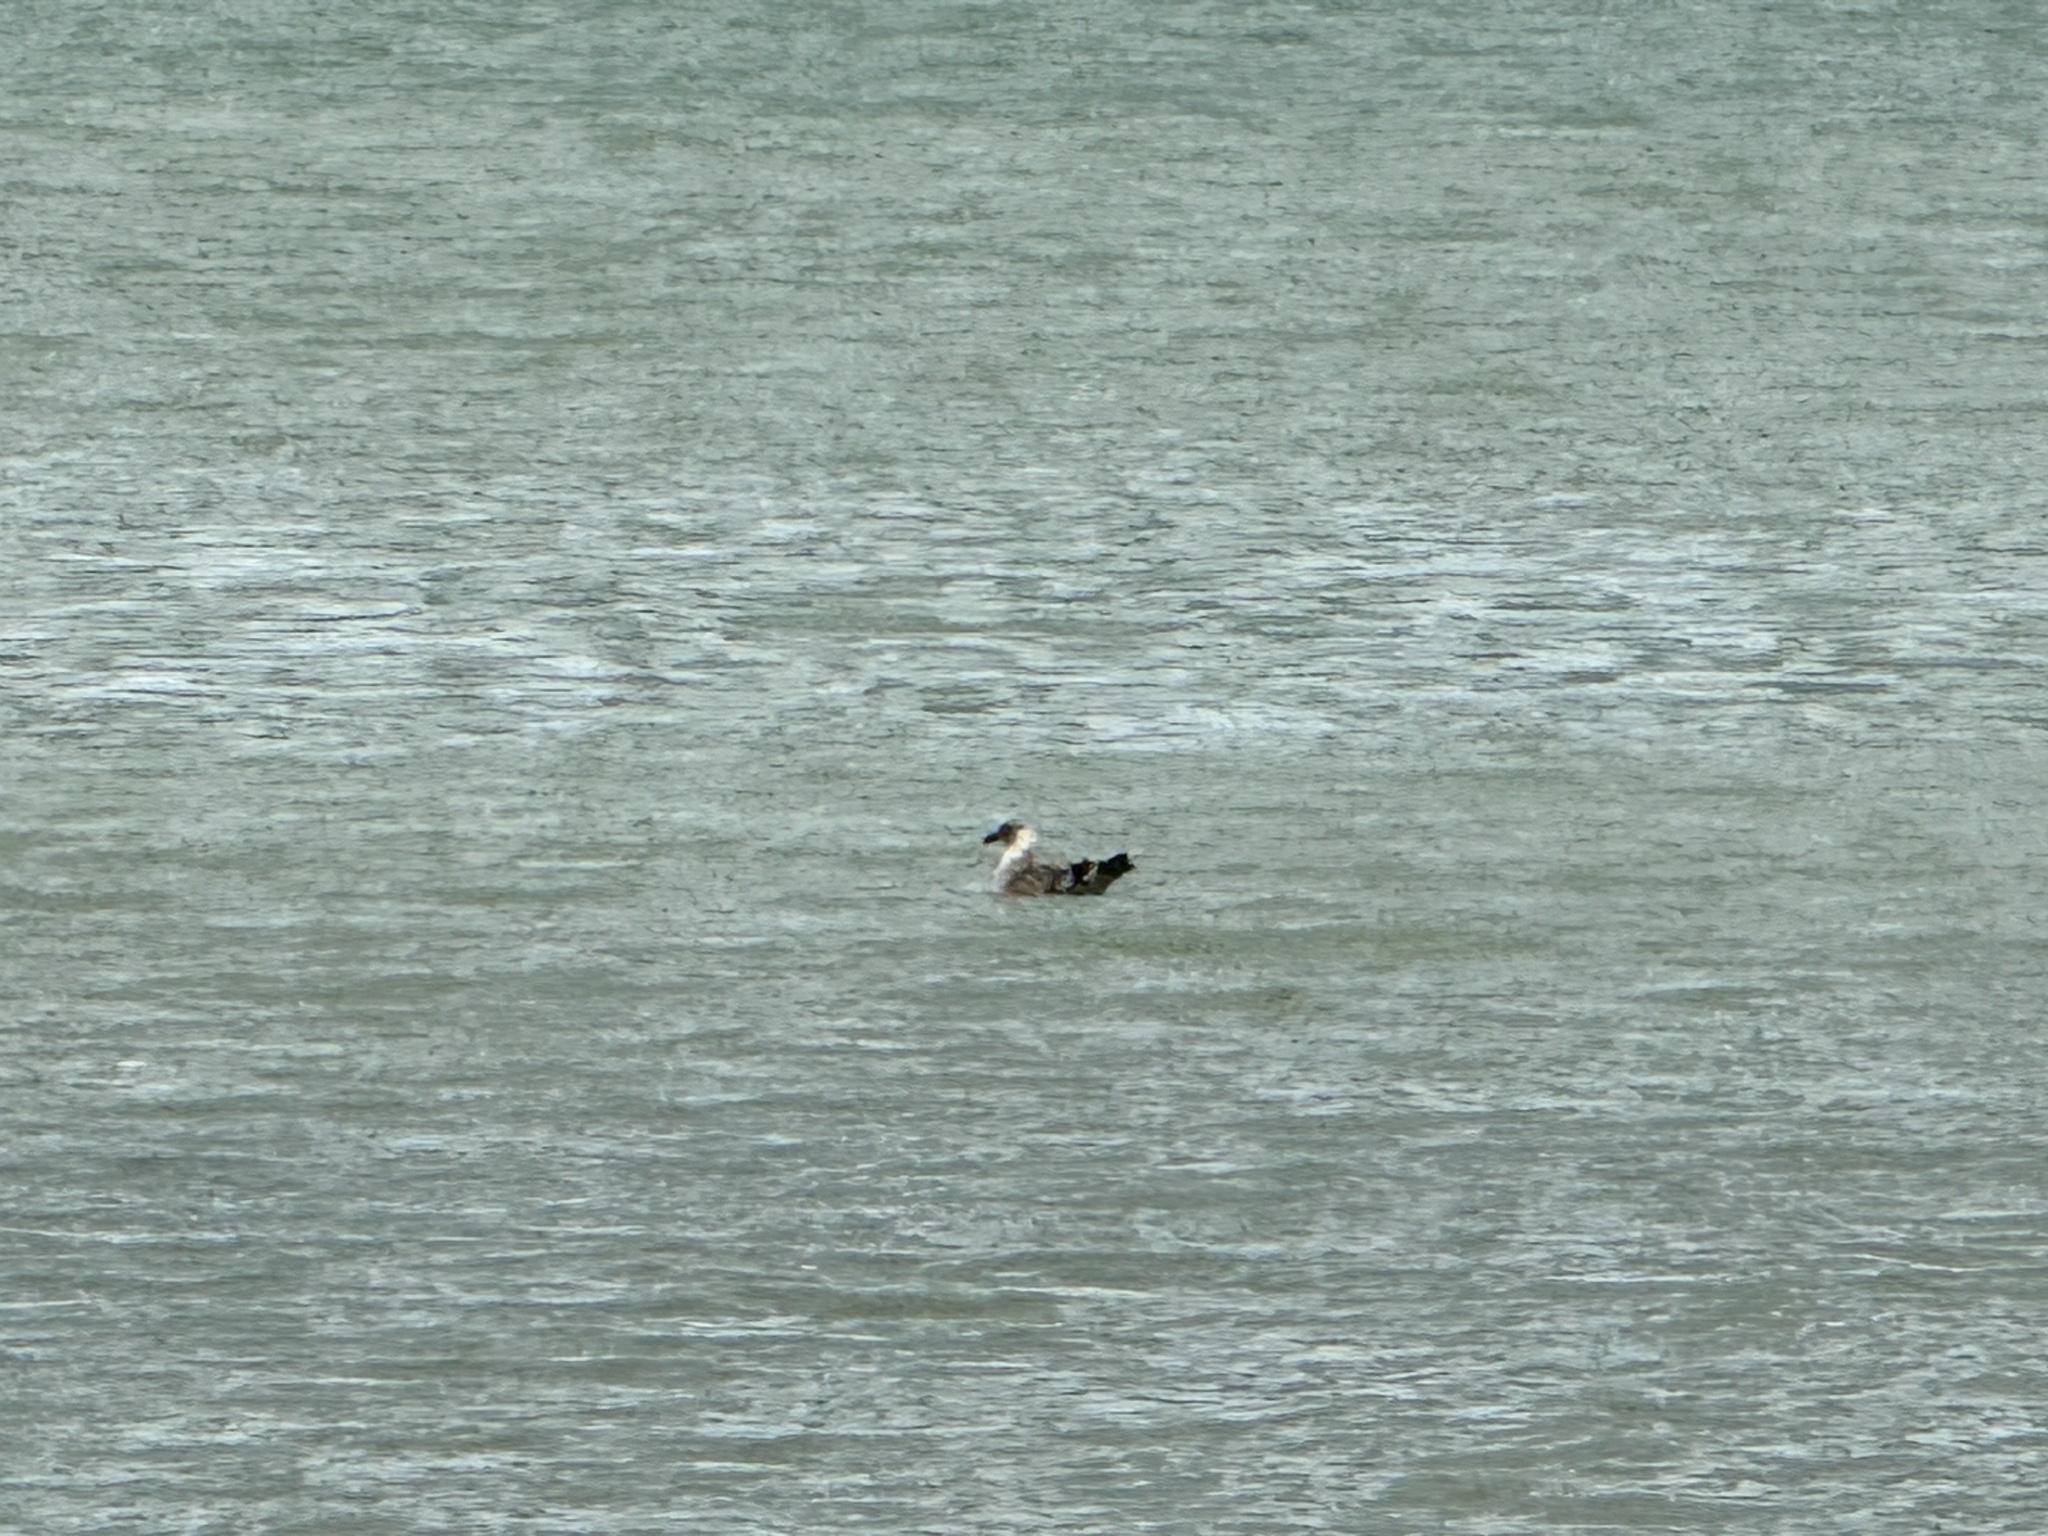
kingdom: Animalia
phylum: Chordata
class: Aves
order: Charadriiformes
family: Laridae
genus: Larus
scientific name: Larus dominicanus
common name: Kelp gull
